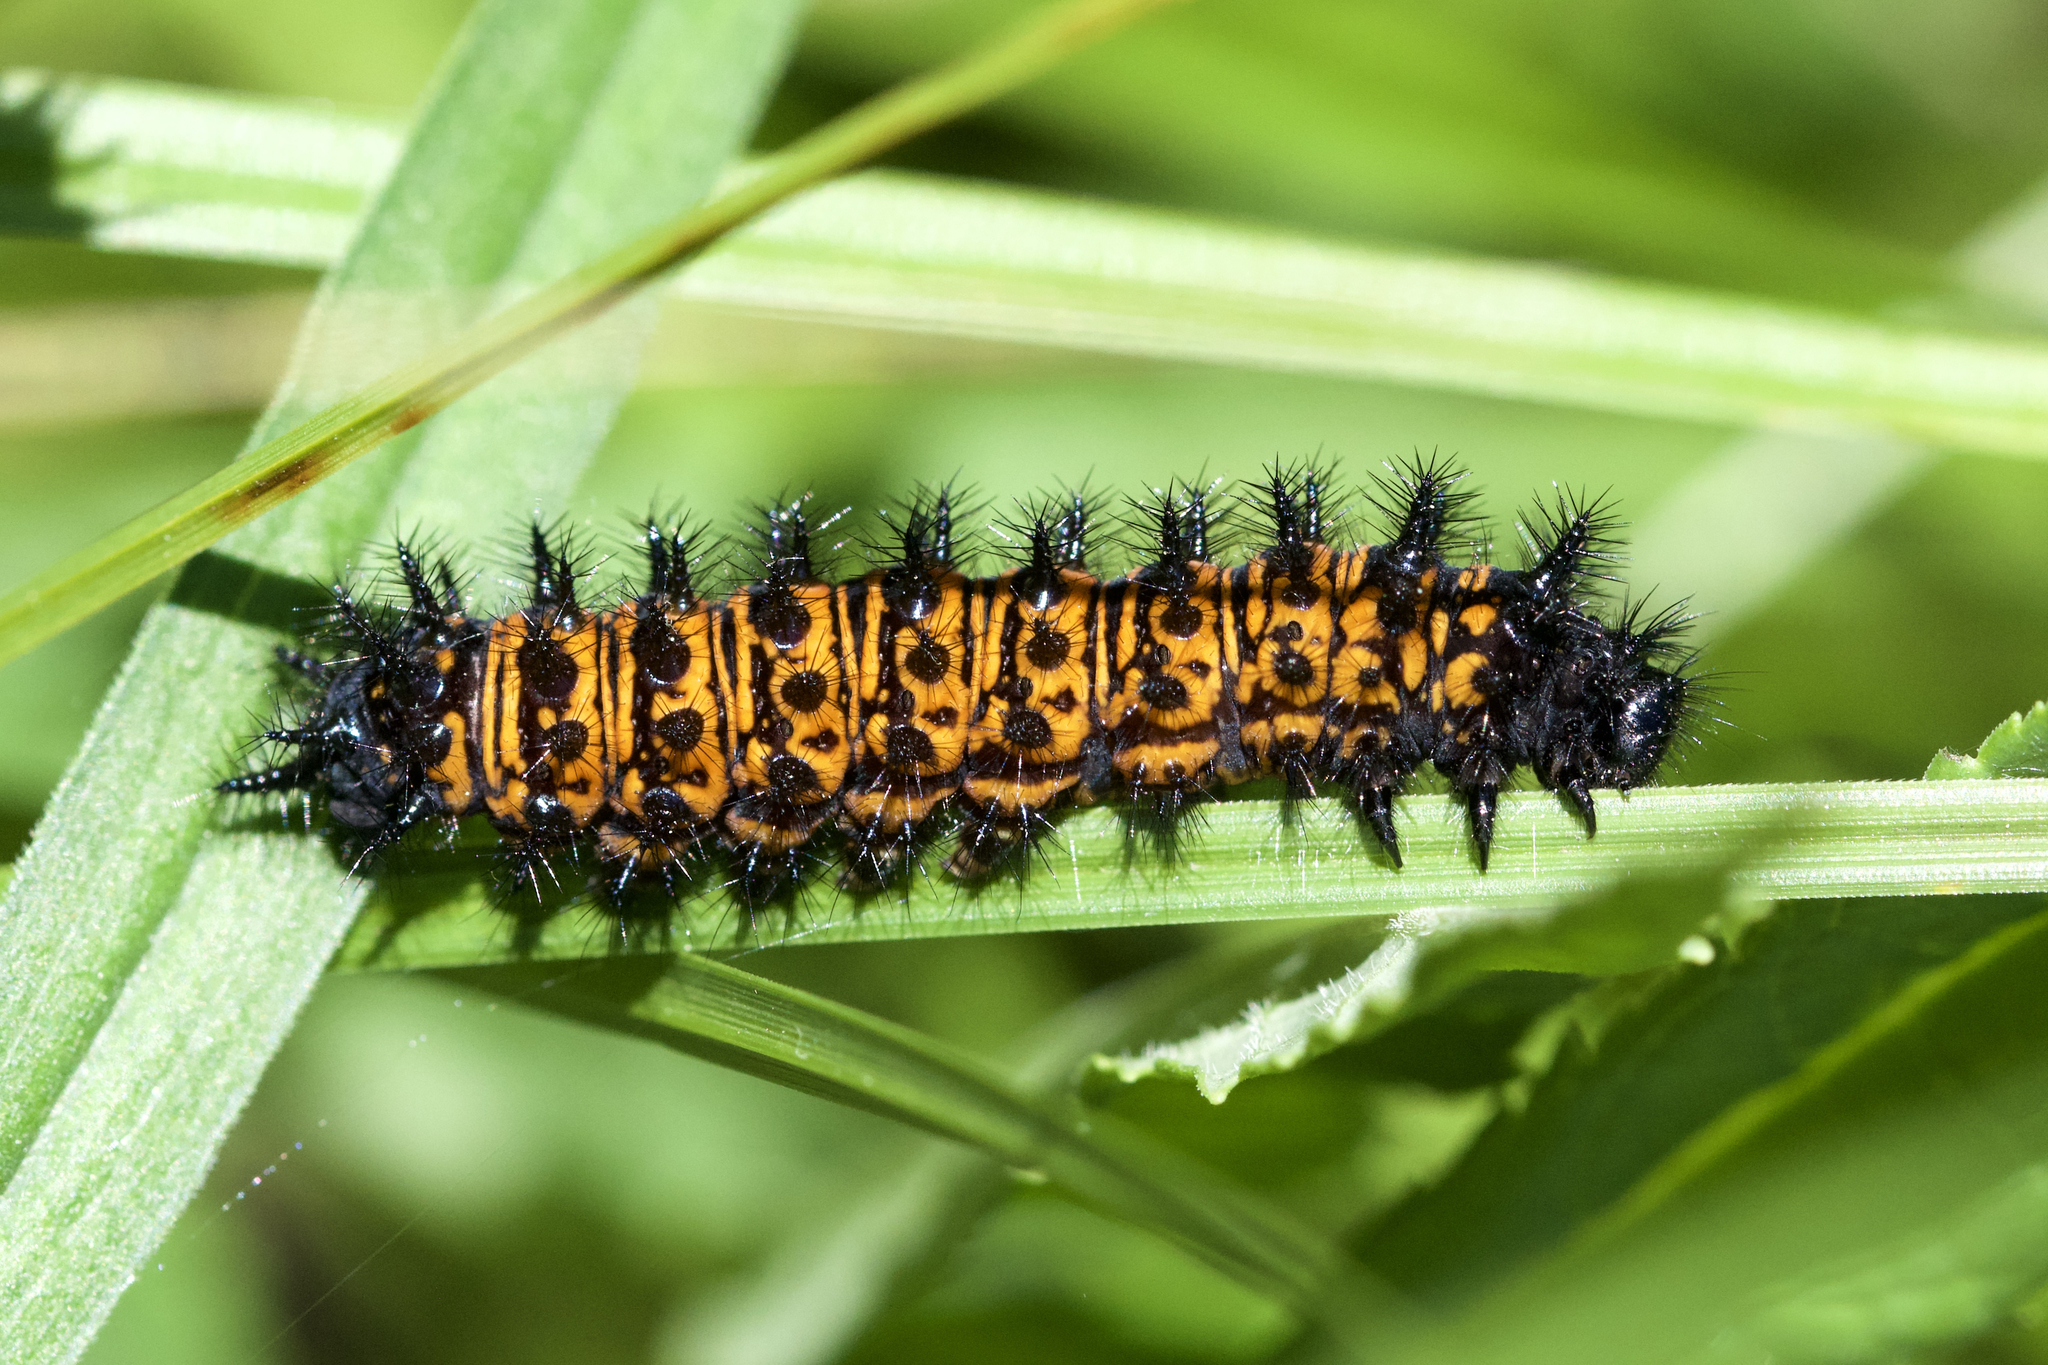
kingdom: Animalia
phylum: Arthropoda
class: Insecta
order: Lepidoptera
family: Nymphalidae
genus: Euphydryas
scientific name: Euphydryas phaeton
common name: Baltimore checkerspot
